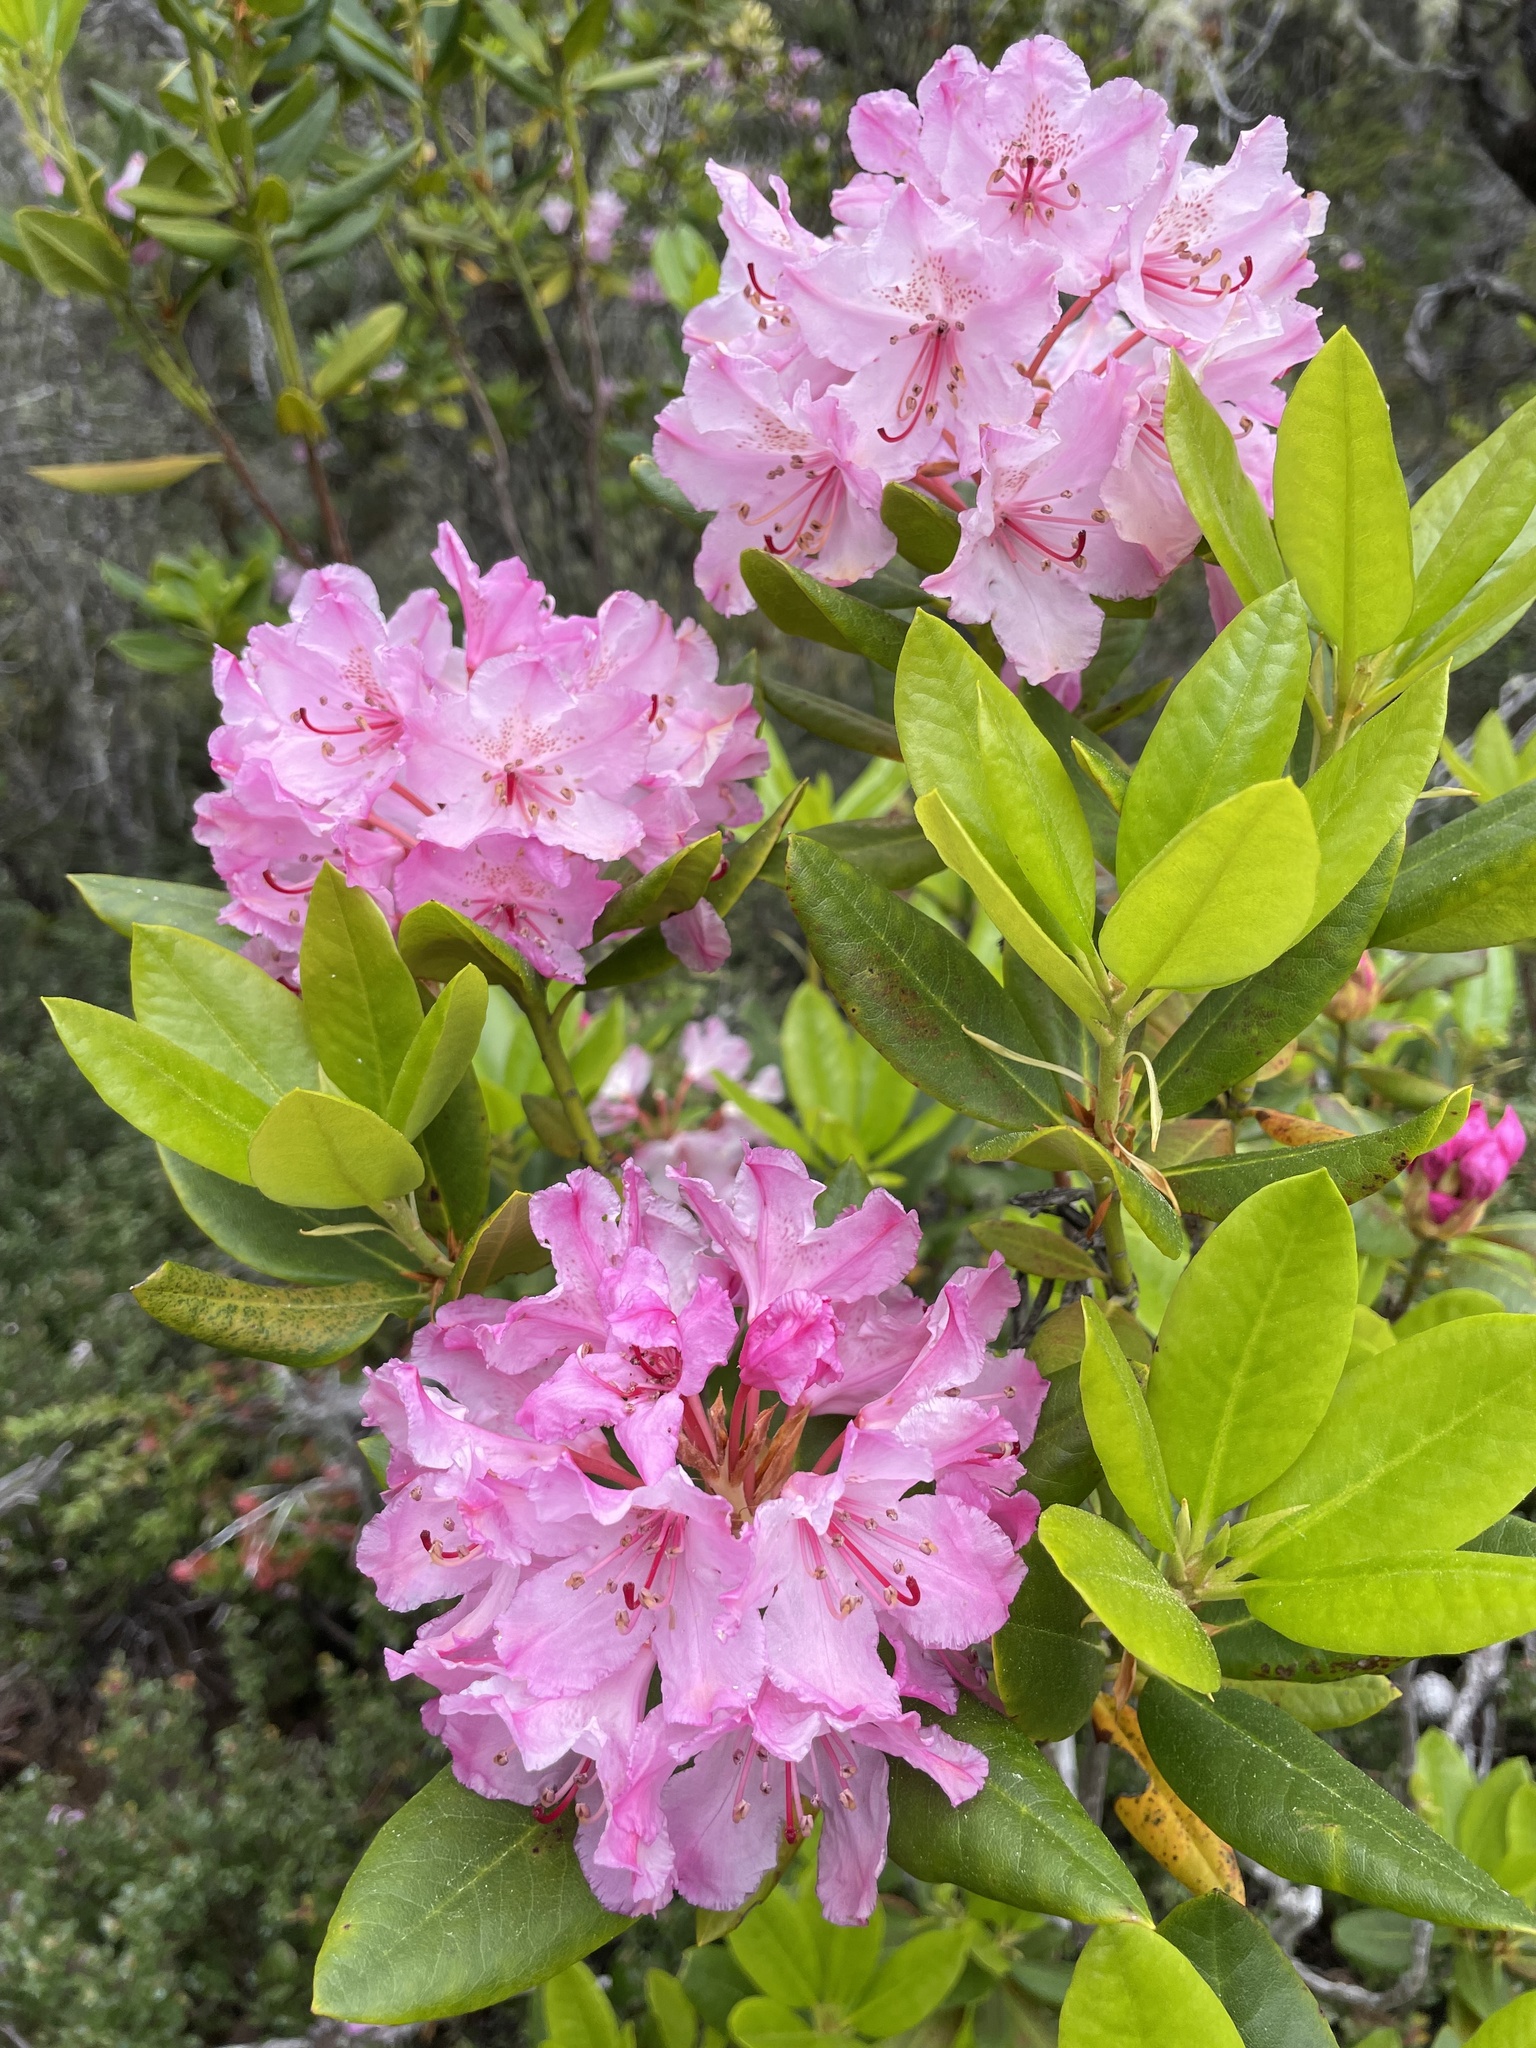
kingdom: Plantae
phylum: Tracheophyta
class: Magnoliopsida
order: Ericales
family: Ericaceae
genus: Rhododendron
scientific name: Rhododendron macrophyllum
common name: California rose bay
